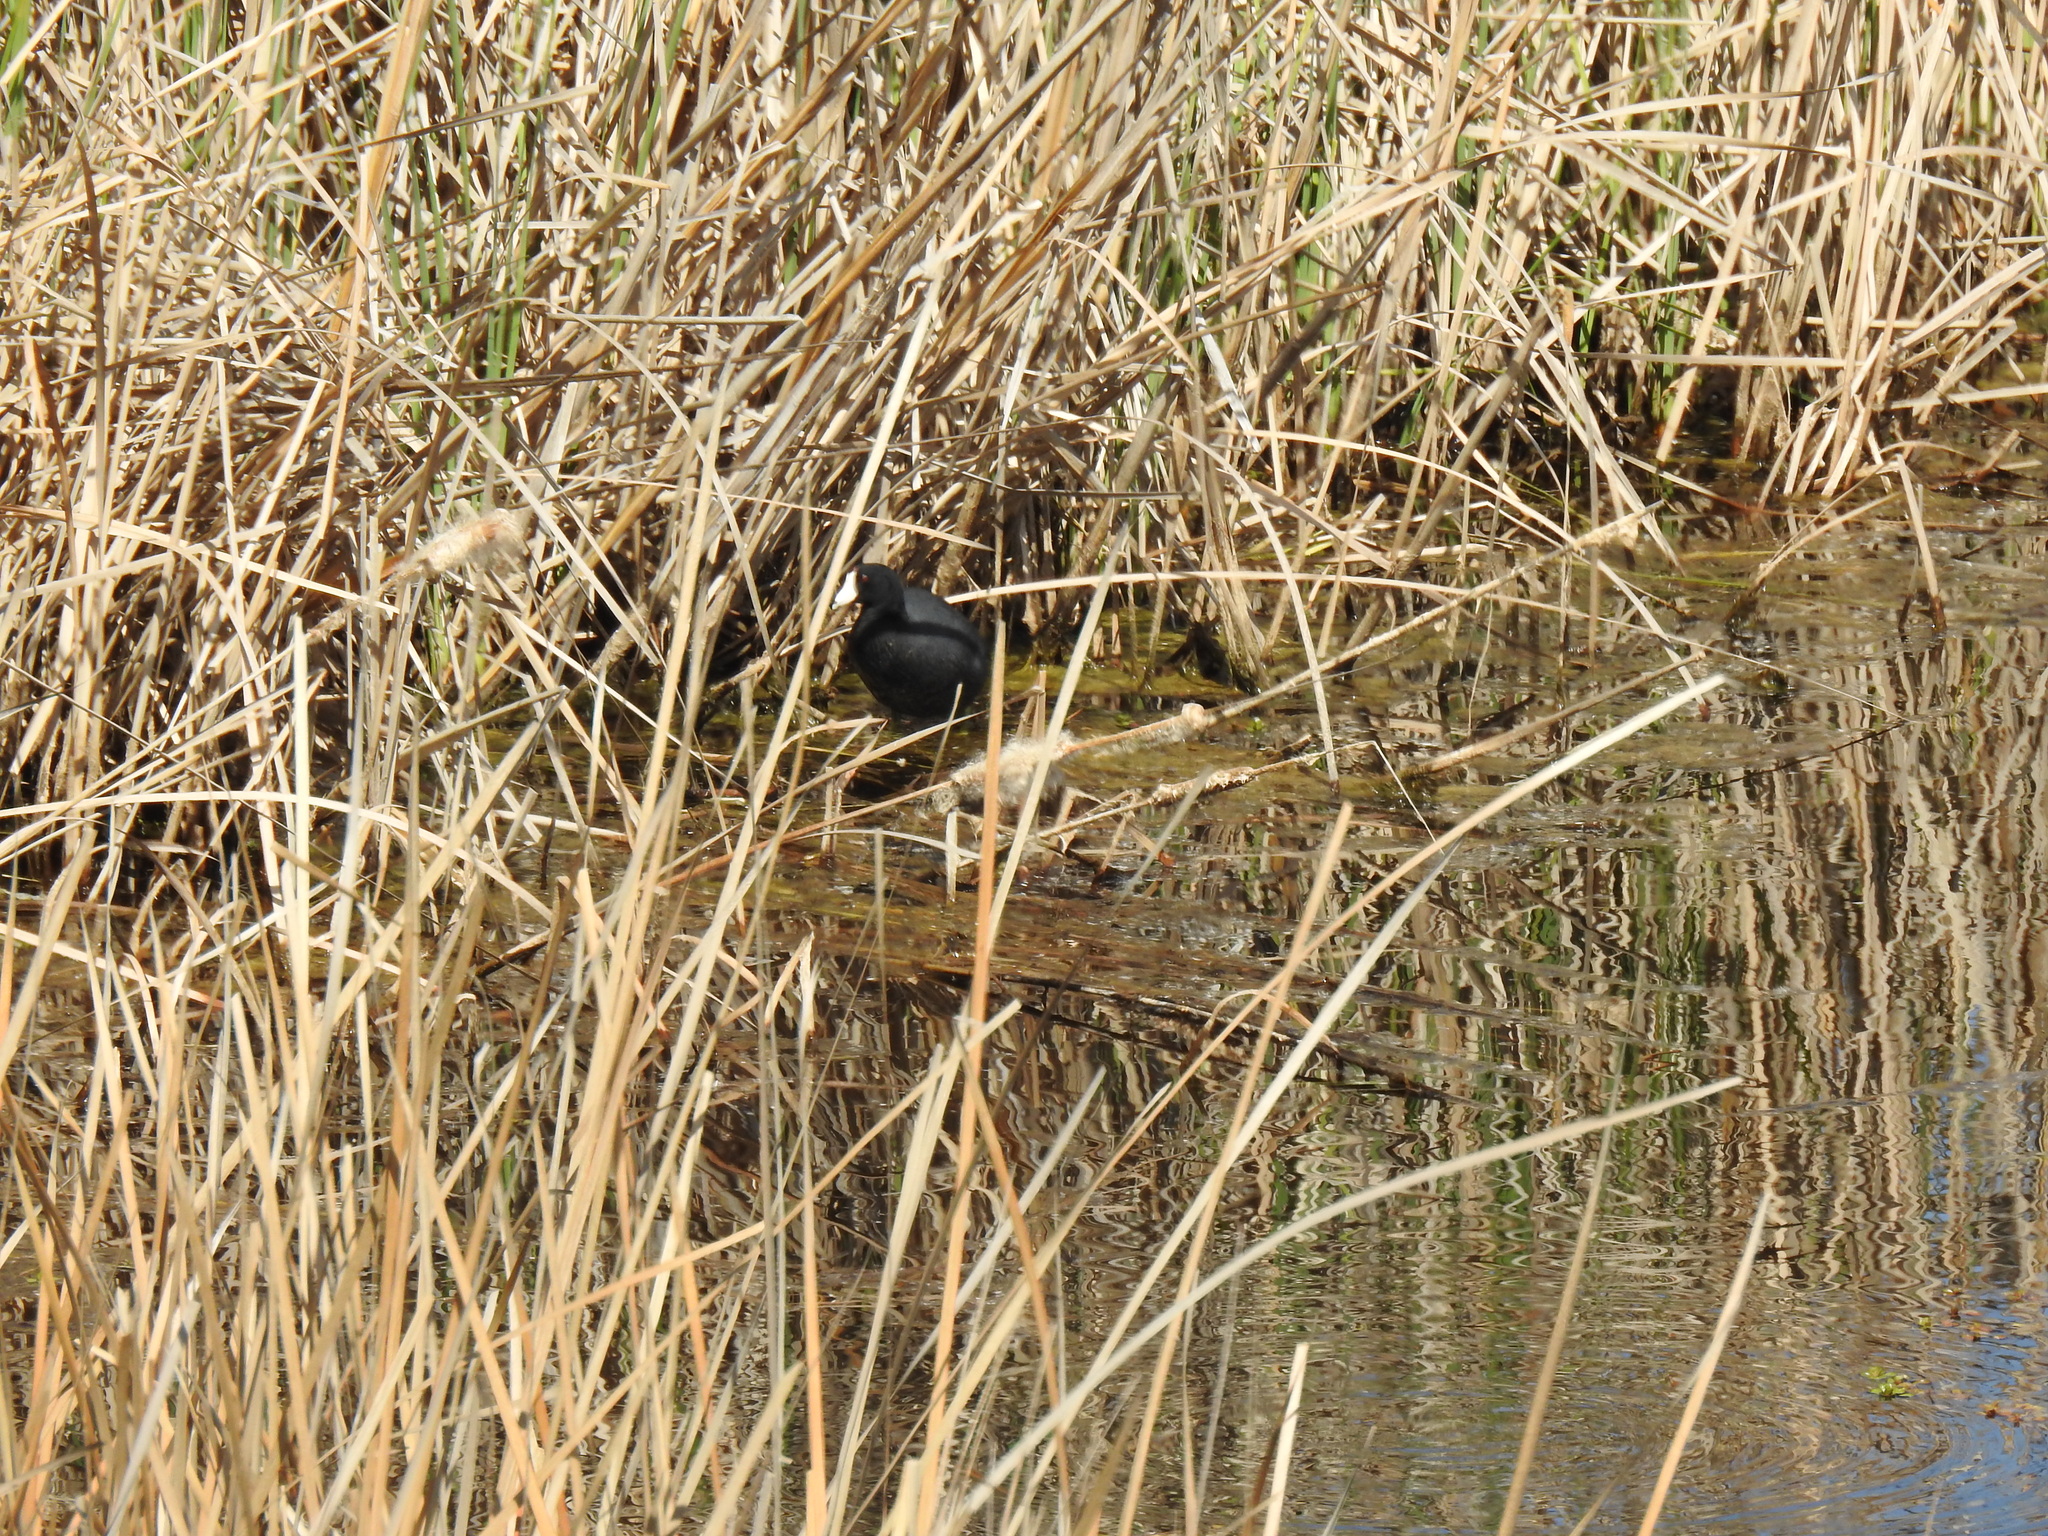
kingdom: Animalia
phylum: Chordata
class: Aves
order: Gruiformes
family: Rallidae
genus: Fulica
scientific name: Fulica americana
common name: American coot
